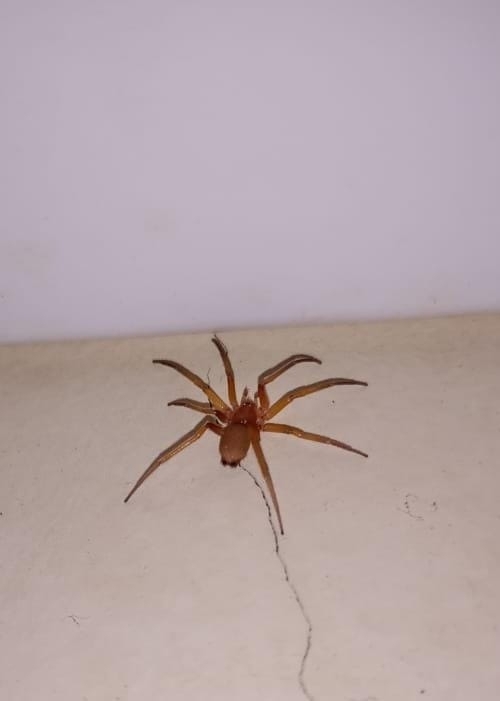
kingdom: Animalia
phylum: Arthropoda
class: Arachnida
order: Araneae
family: Prodidomidae
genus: Zimiris
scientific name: Zimiris doriae
